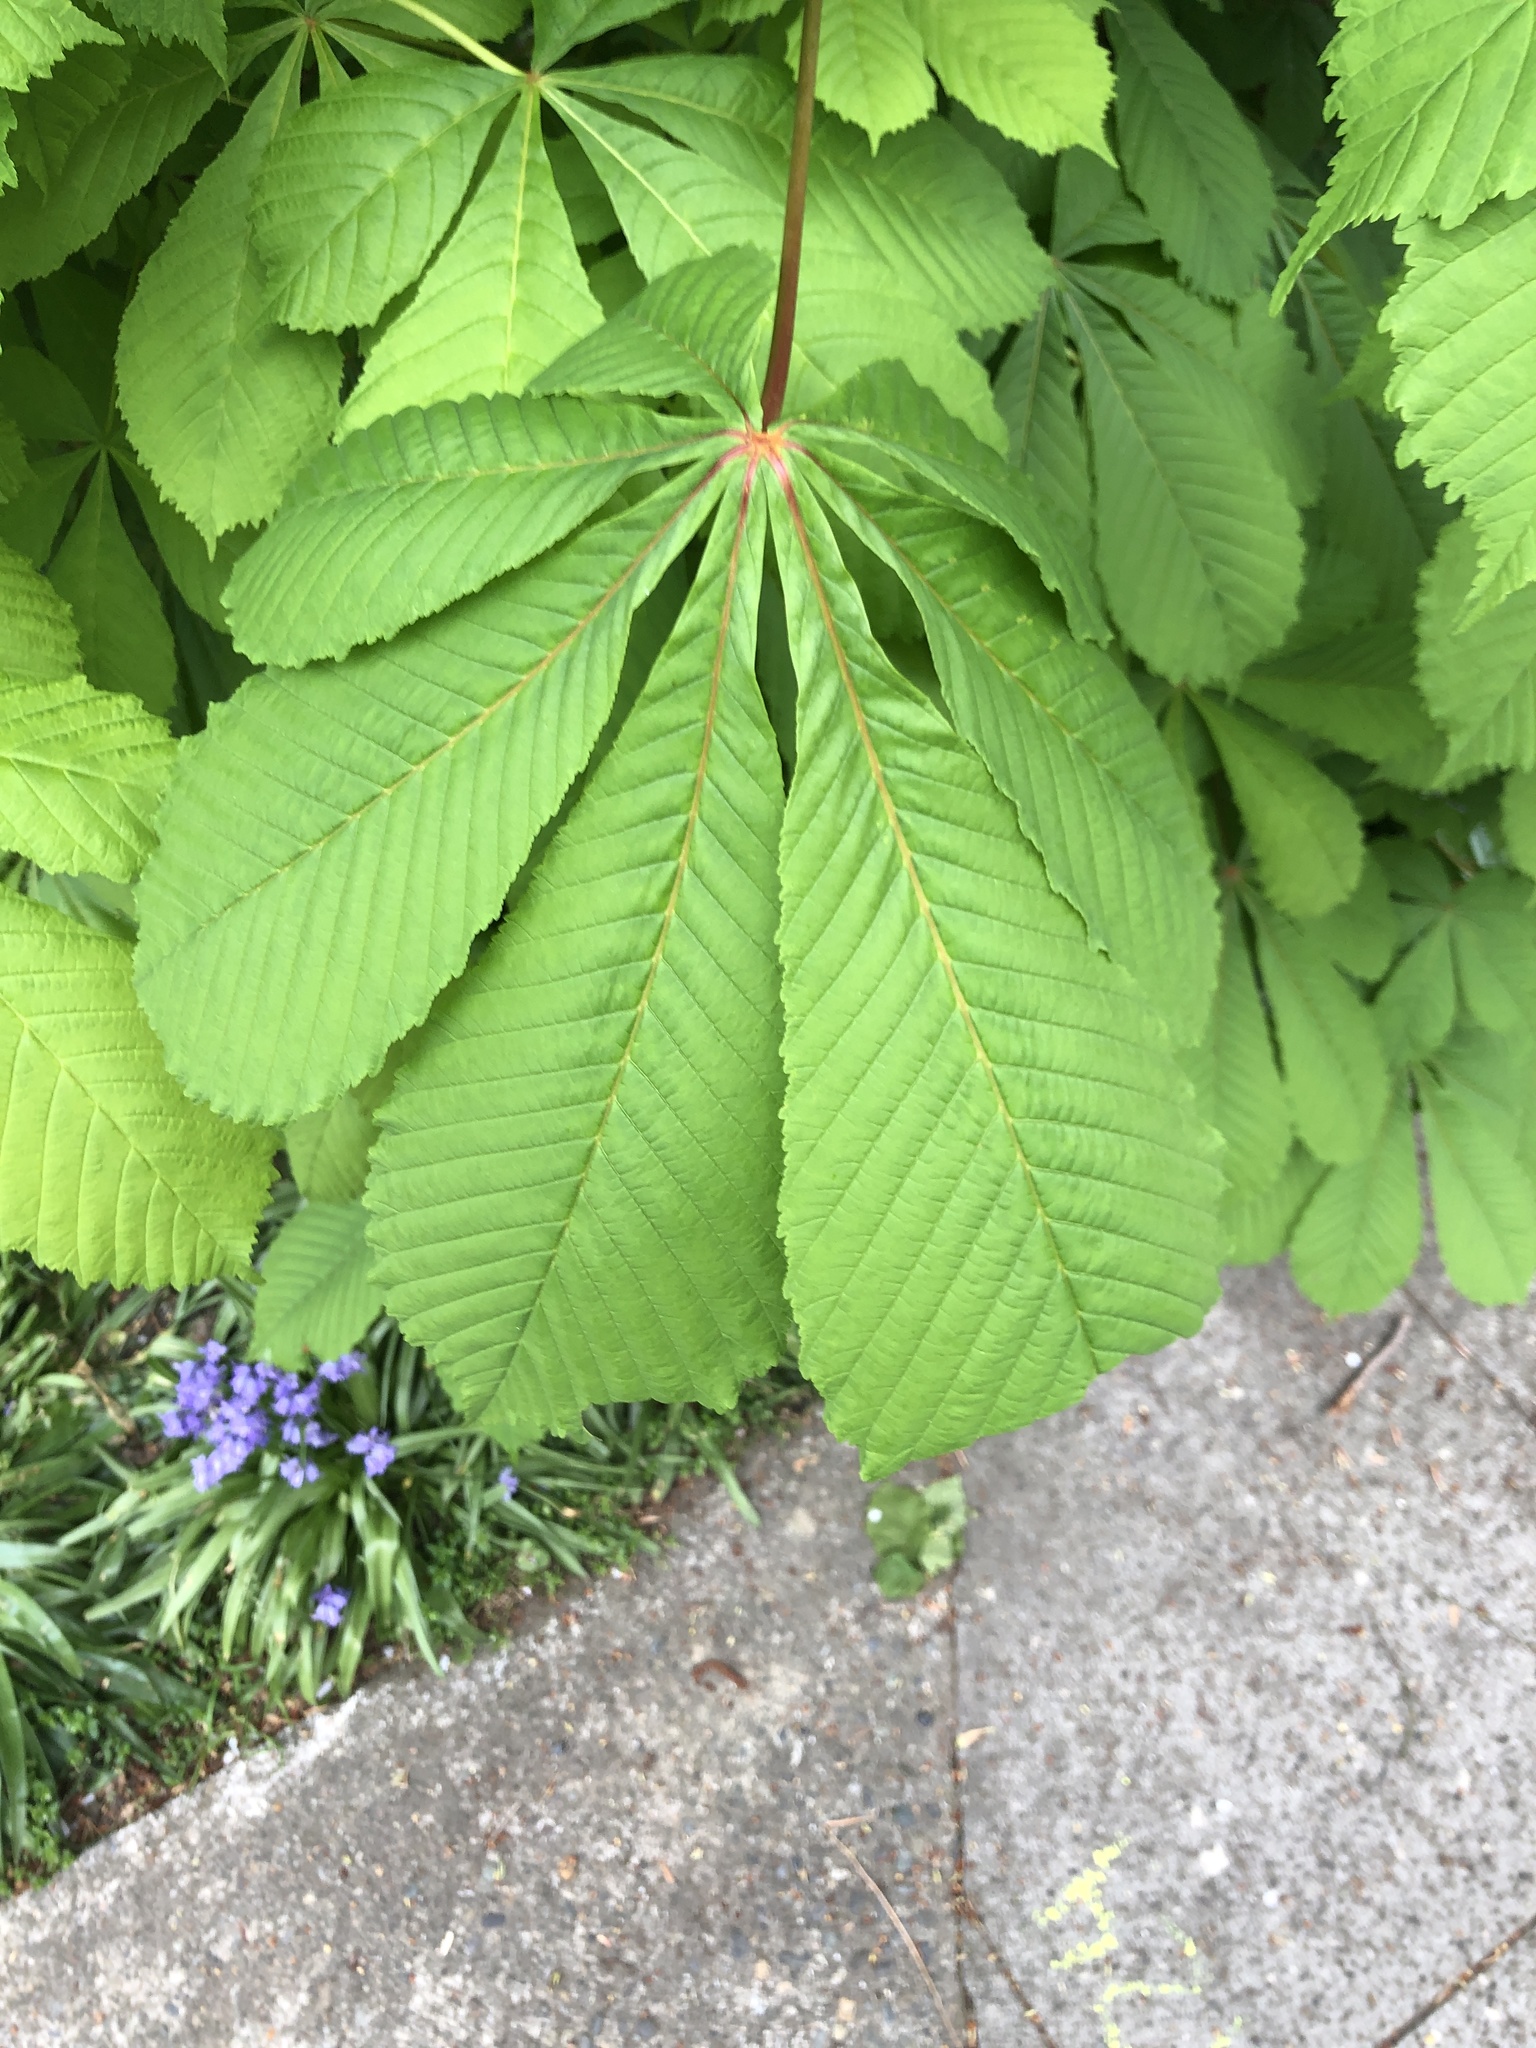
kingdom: Plantae
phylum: Tracheophyta
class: Magnoliopsida
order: Sapindales
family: Sapindaceae
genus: Aesculus
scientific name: Aesculus hippocastanum
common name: Horse-chestnut
